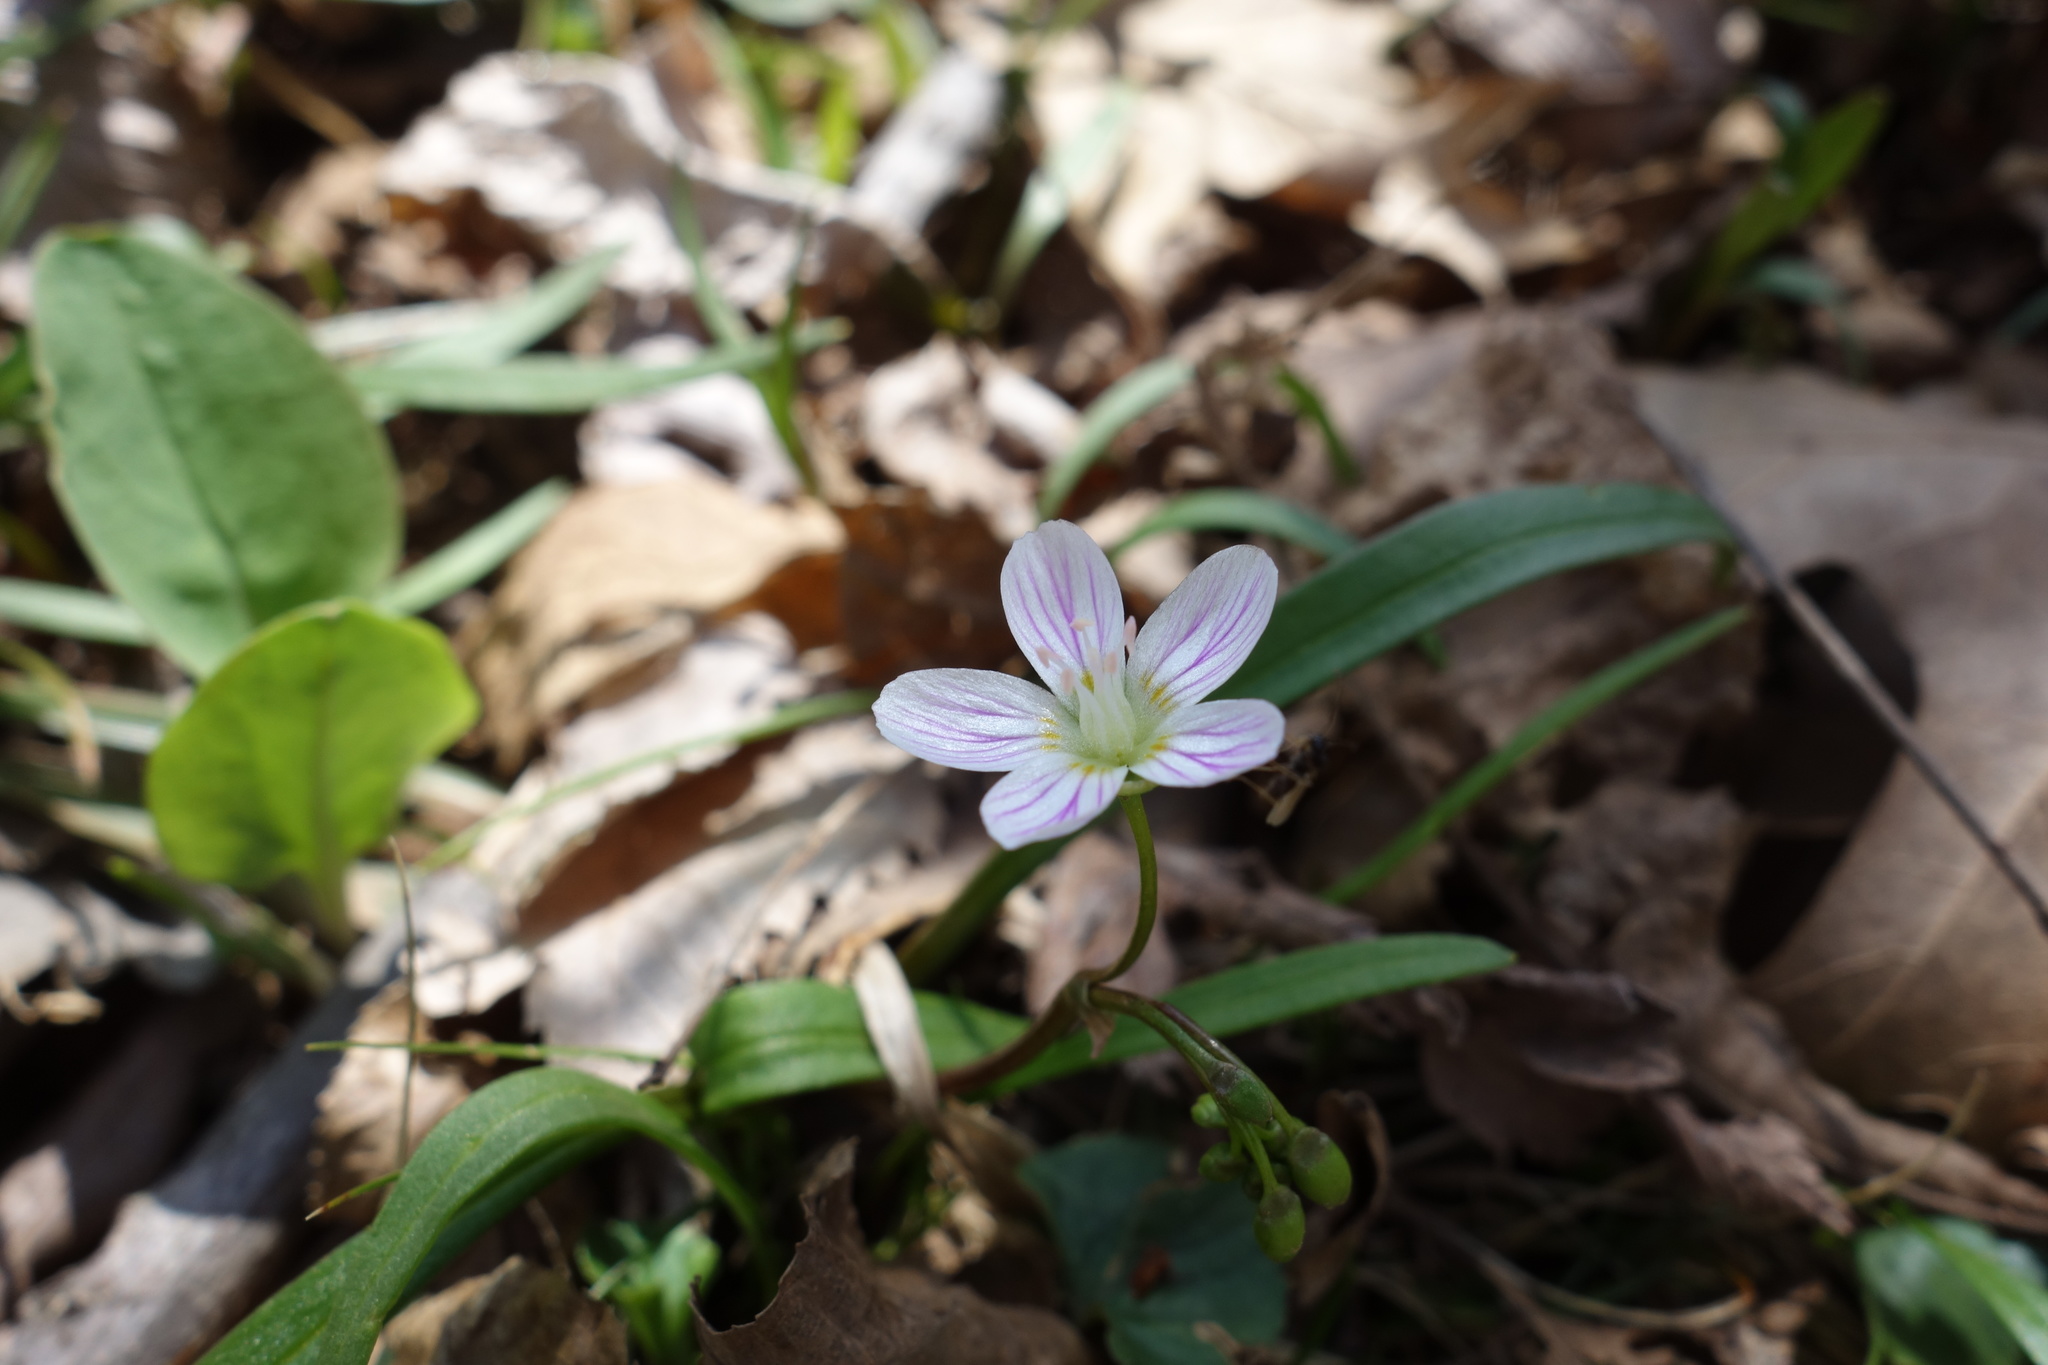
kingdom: Plantae
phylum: Tracheophyta
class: Magnoliopsida
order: Caryophyllales
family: Montiaceae
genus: Claytonia
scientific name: Claytonia virginica
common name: Virginia springbeauty
